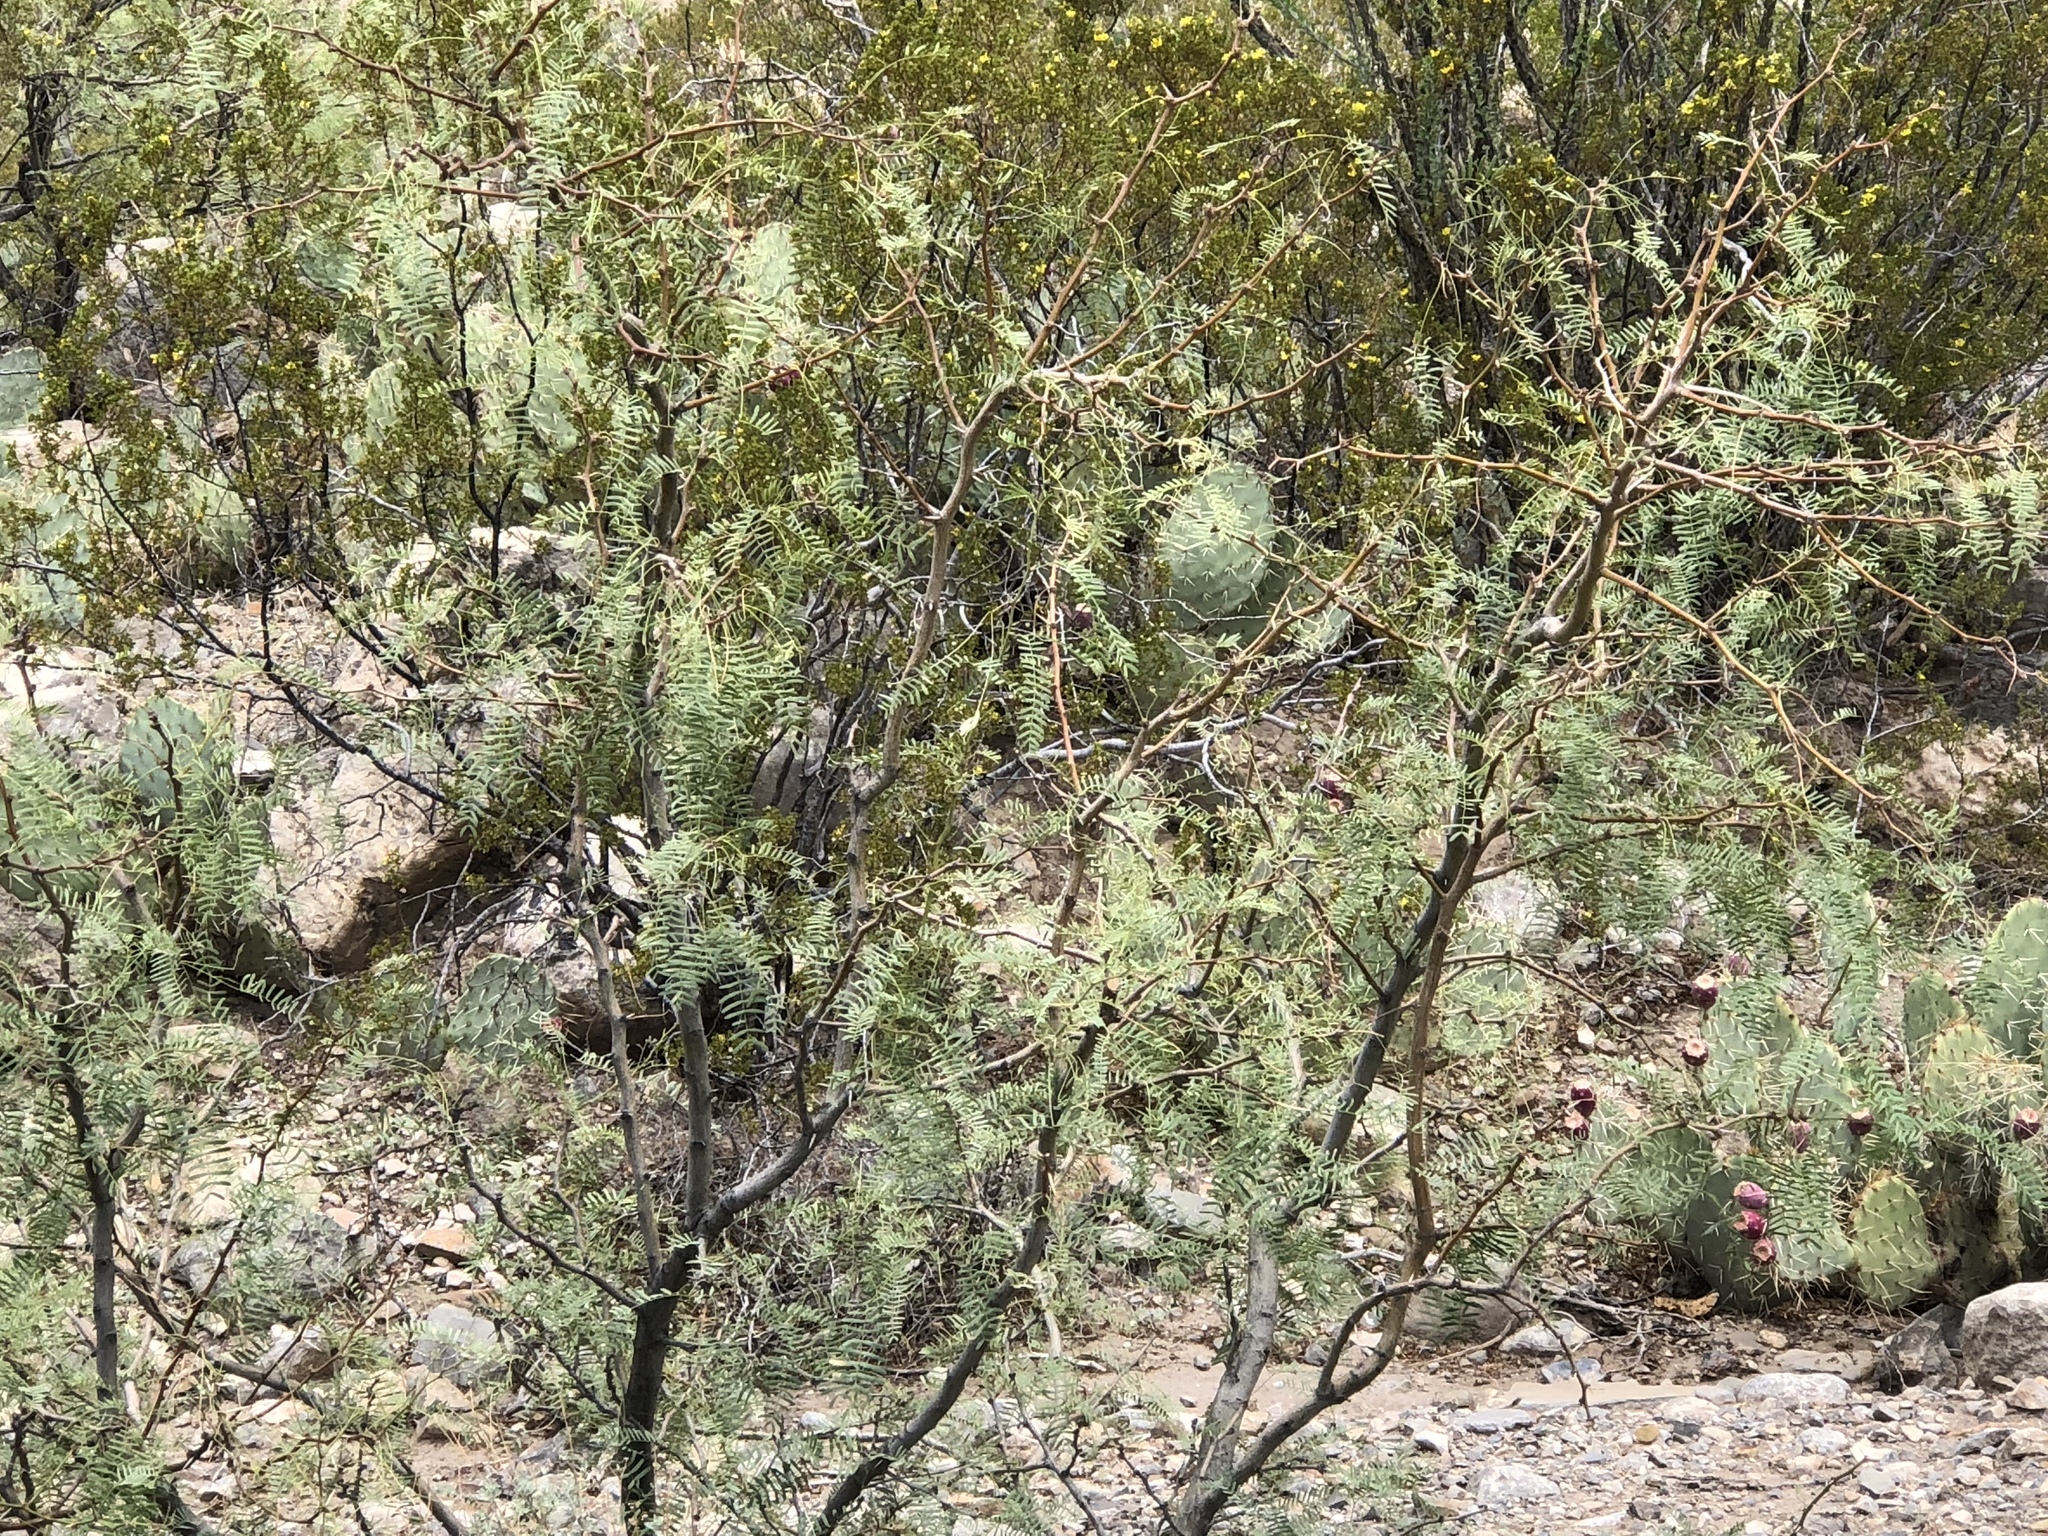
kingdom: Plantae
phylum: Tracheophyta
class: Magnoliopsida
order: Fabales
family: Fabaceae
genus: Prosopis
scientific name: Prosopis glandulosa
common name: Honey mesquite
